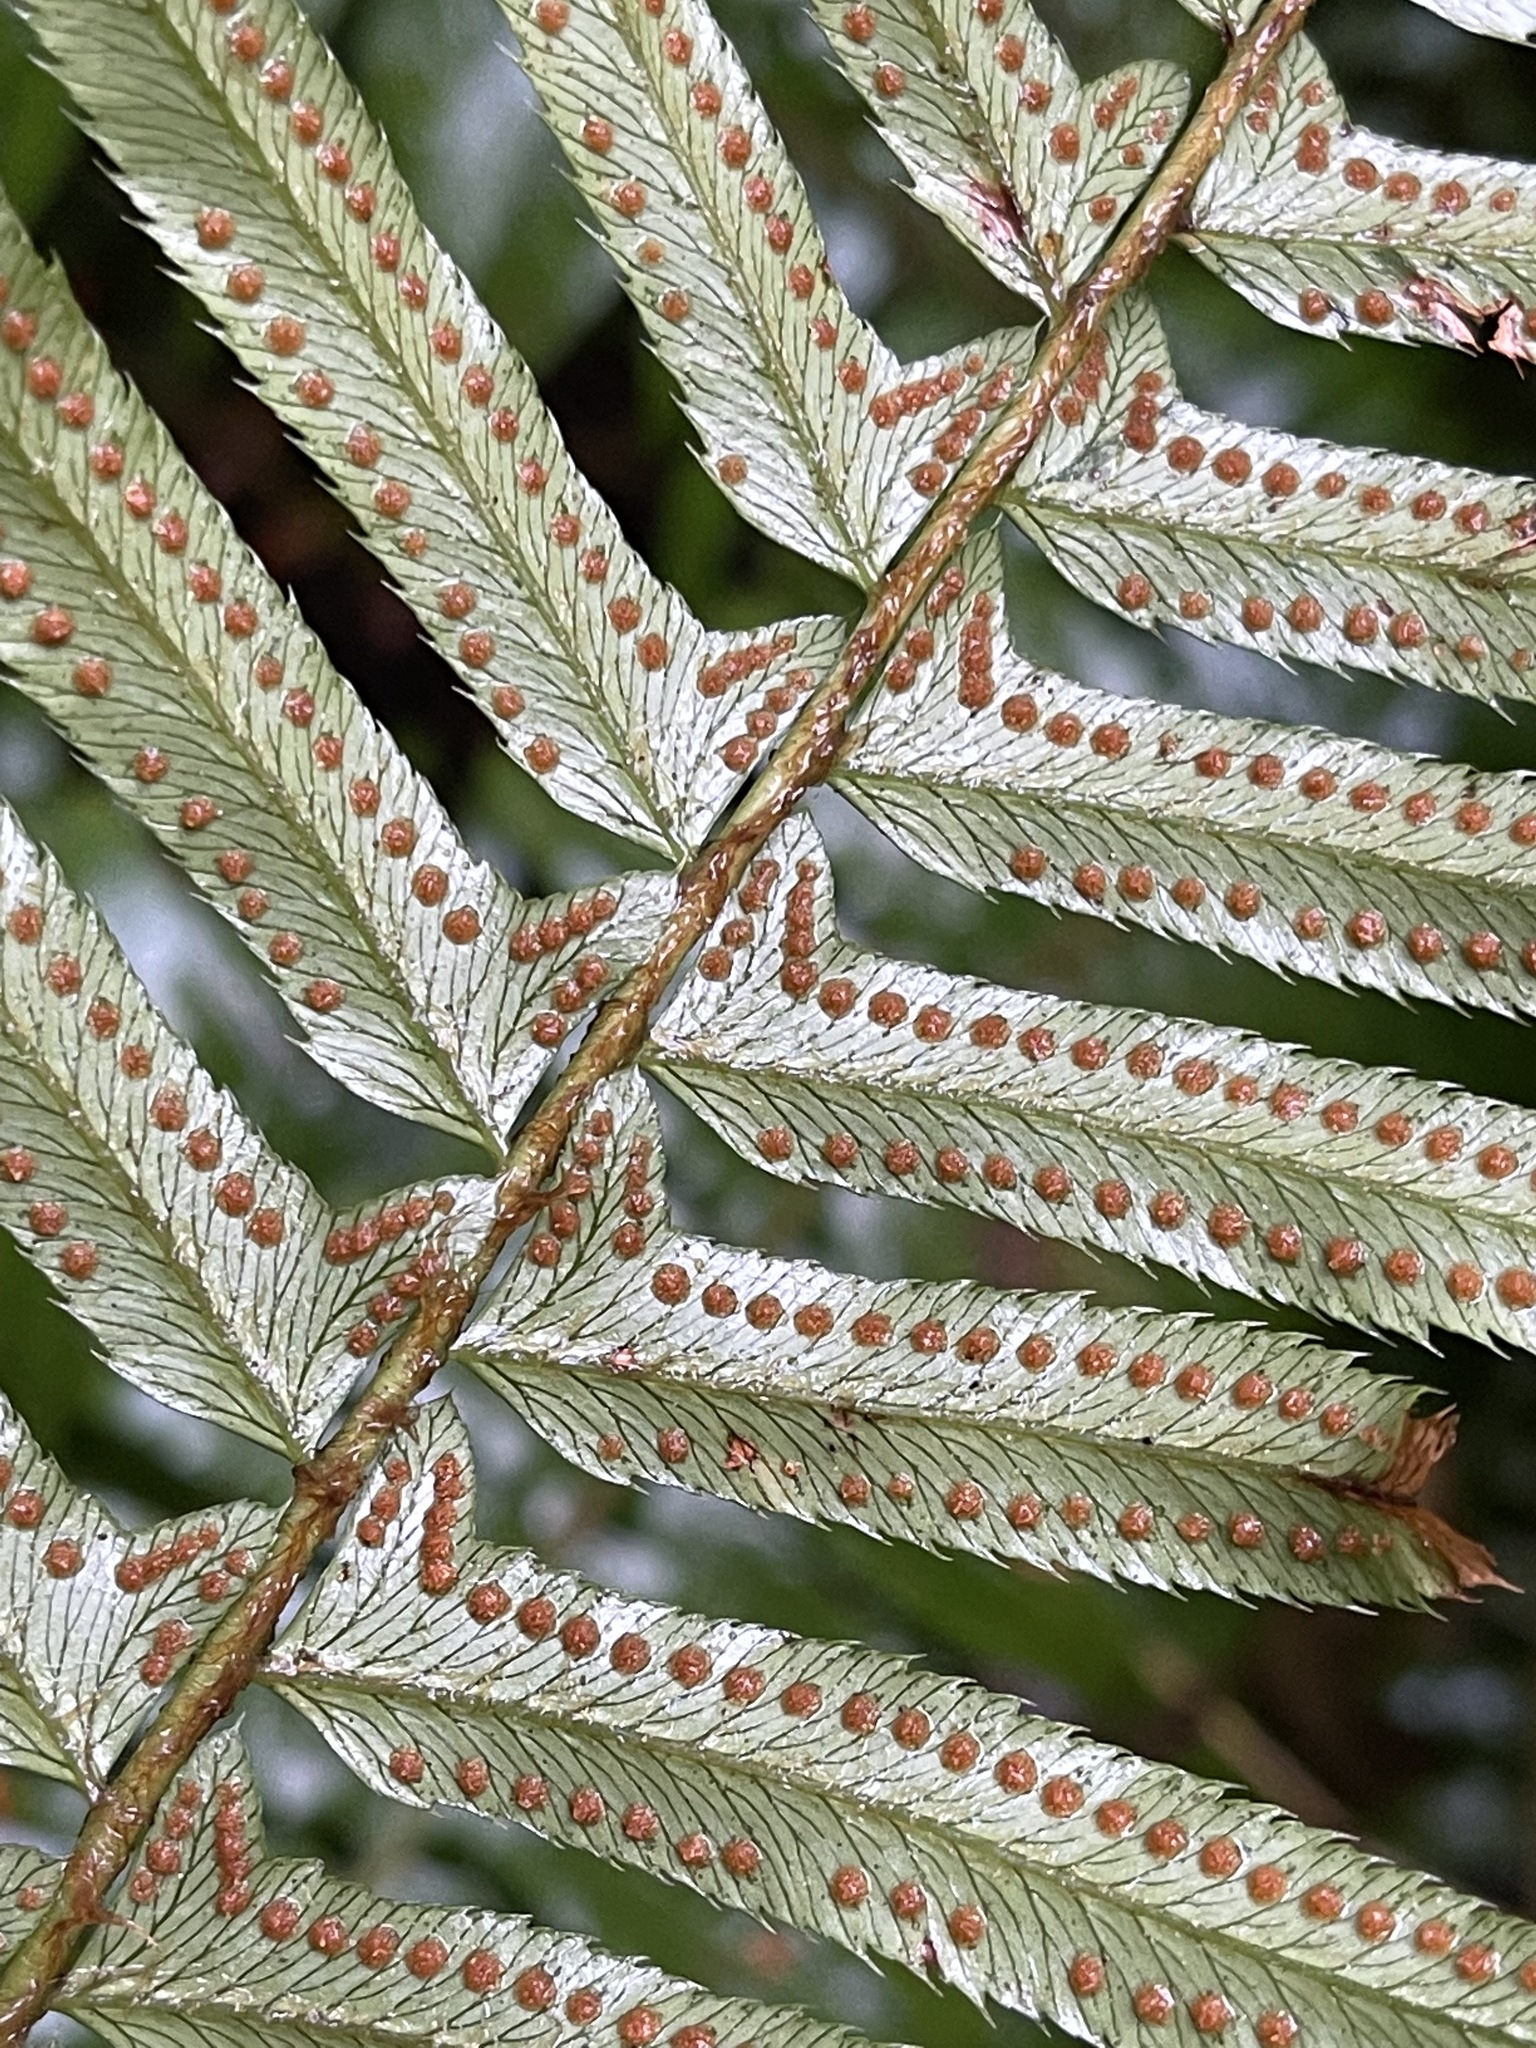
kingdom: Plantae
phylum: Tracheophyta
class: Polypodiopsida
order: Polypodiales
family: Dryopteridaceae
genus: Polystichum
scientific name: Polystichum munitum
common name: Western sword-fern
